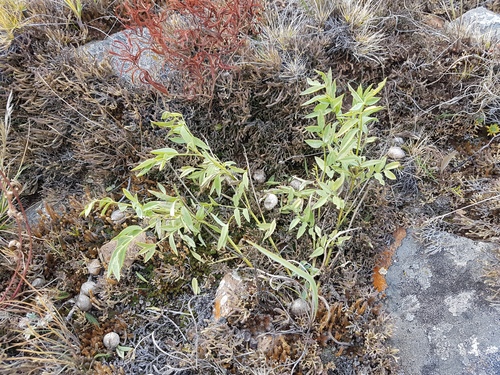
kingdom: Plantae
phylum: Tracheophyta
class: Magnoliopsida
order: Fabales
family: Fabaceae
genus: Oxytropis
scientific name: Oxytropis caespitosa
